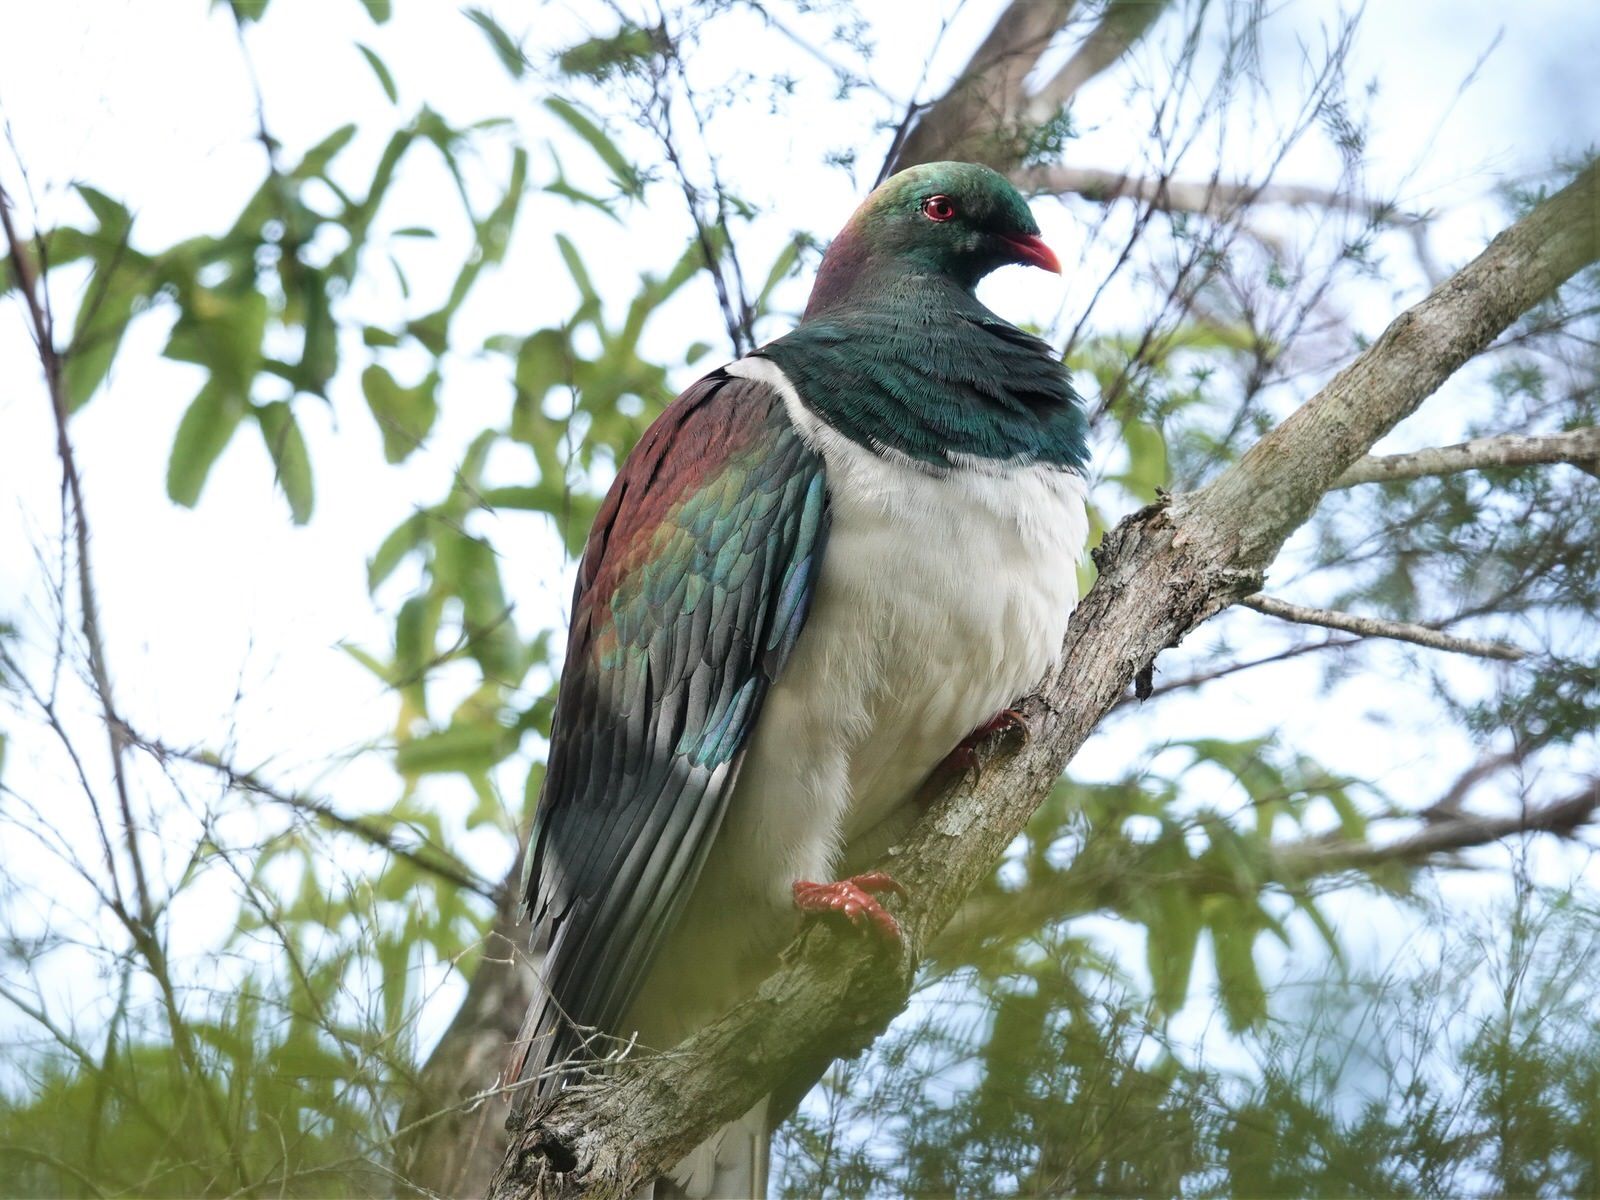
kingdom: Animalia
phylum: Chordata
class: Aves
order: Columbiformes
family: Columbidae
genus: Hemiphaga
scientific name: Hemiphaga novaeseelandiae
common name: New zealand pigeon
